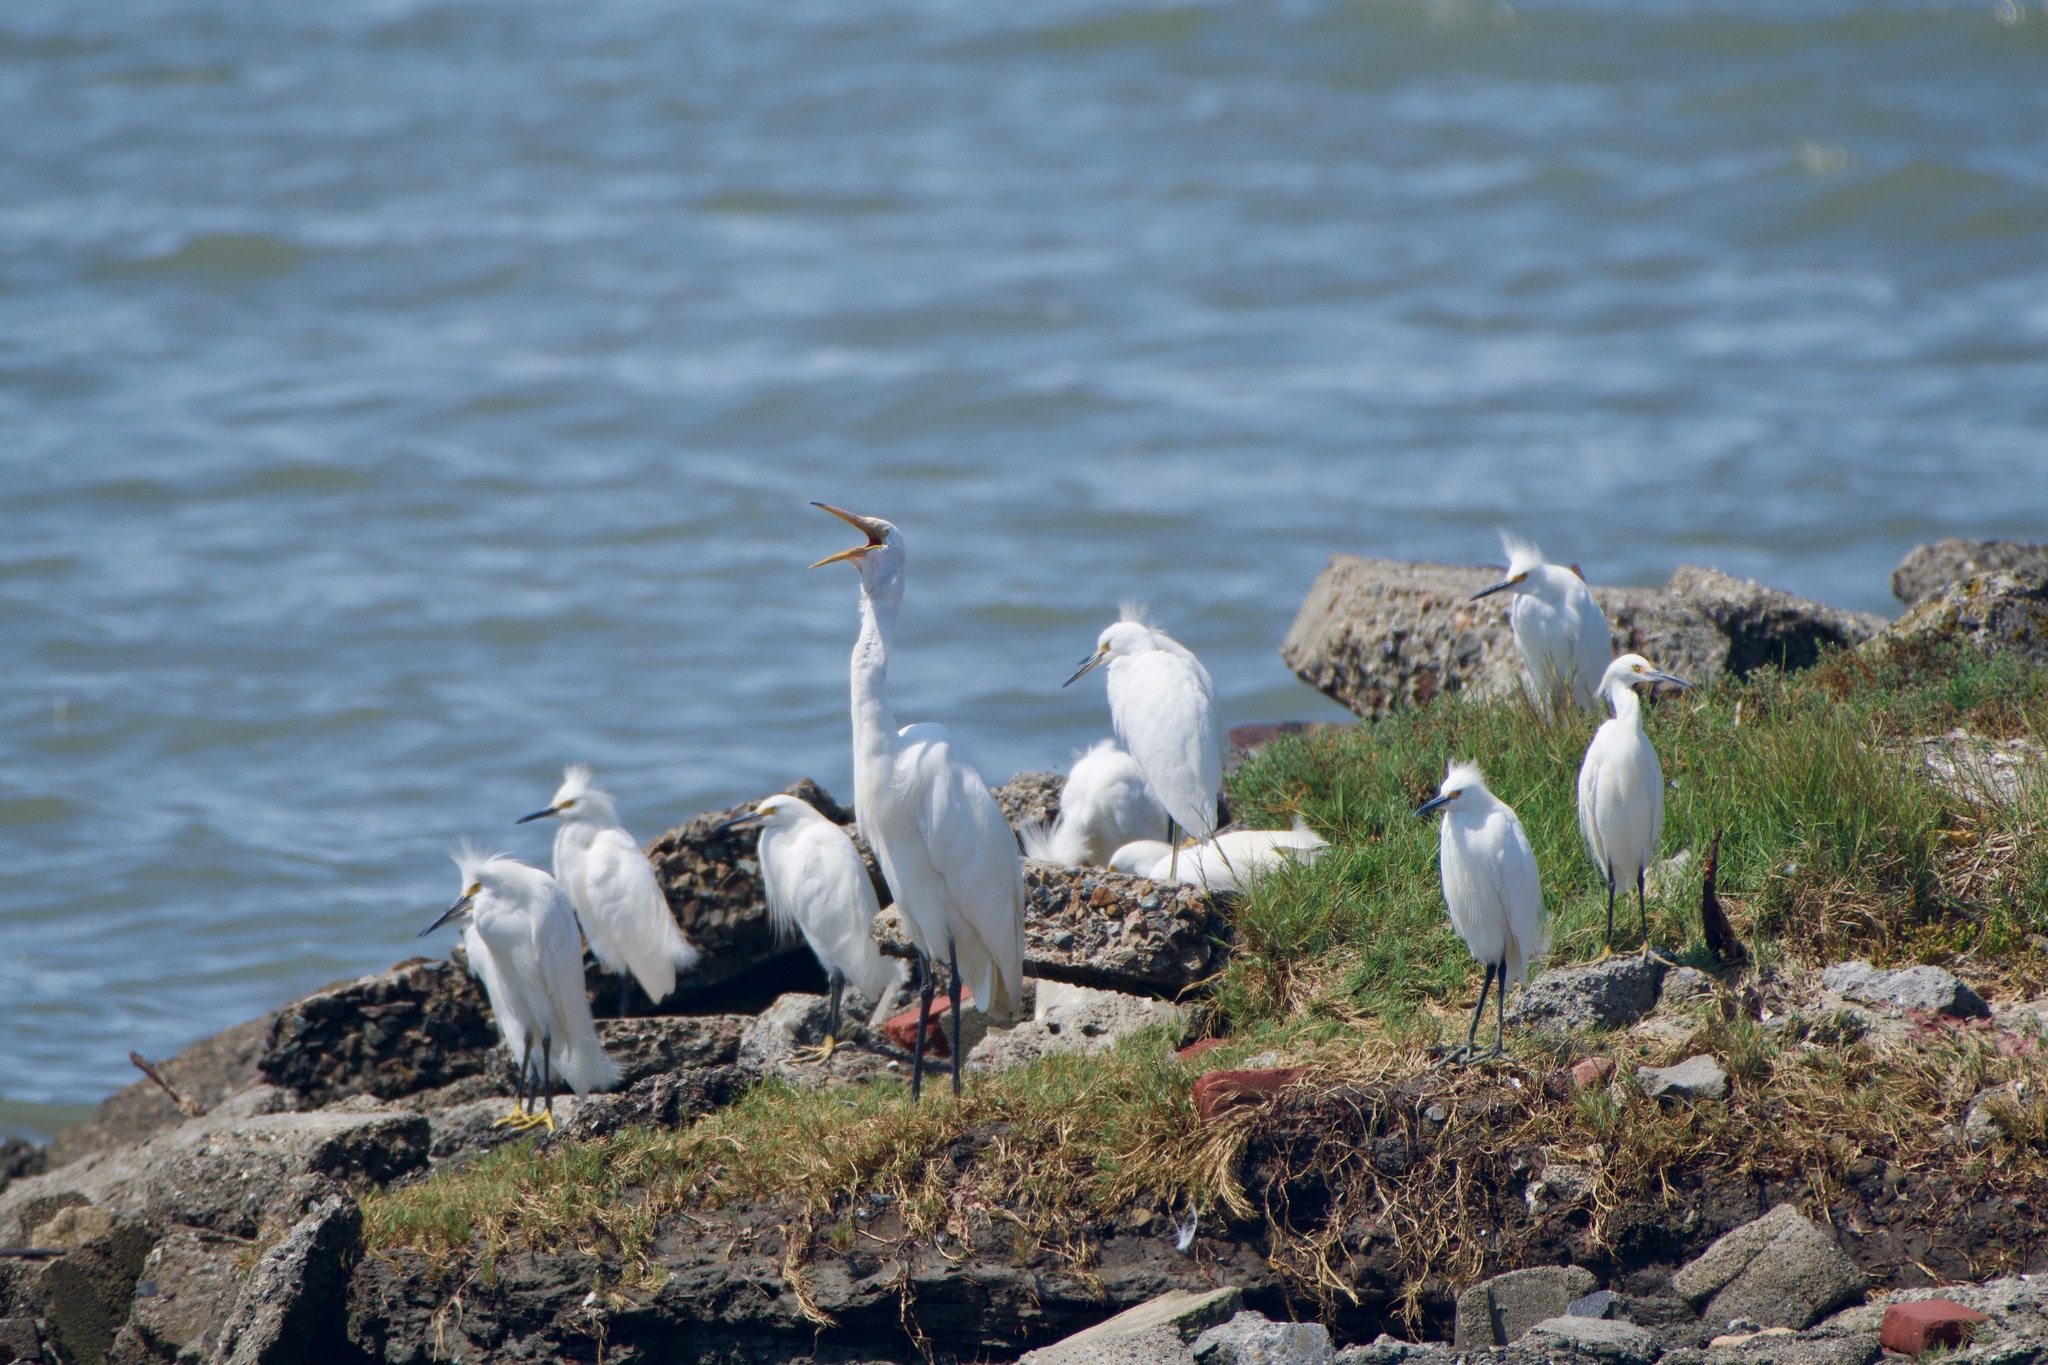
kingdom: Animalia
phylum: Chordata
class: Aves
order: Pelecaniformes
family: Ardeidae
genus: Ardea
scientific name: Ardea alba
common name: Great egret
